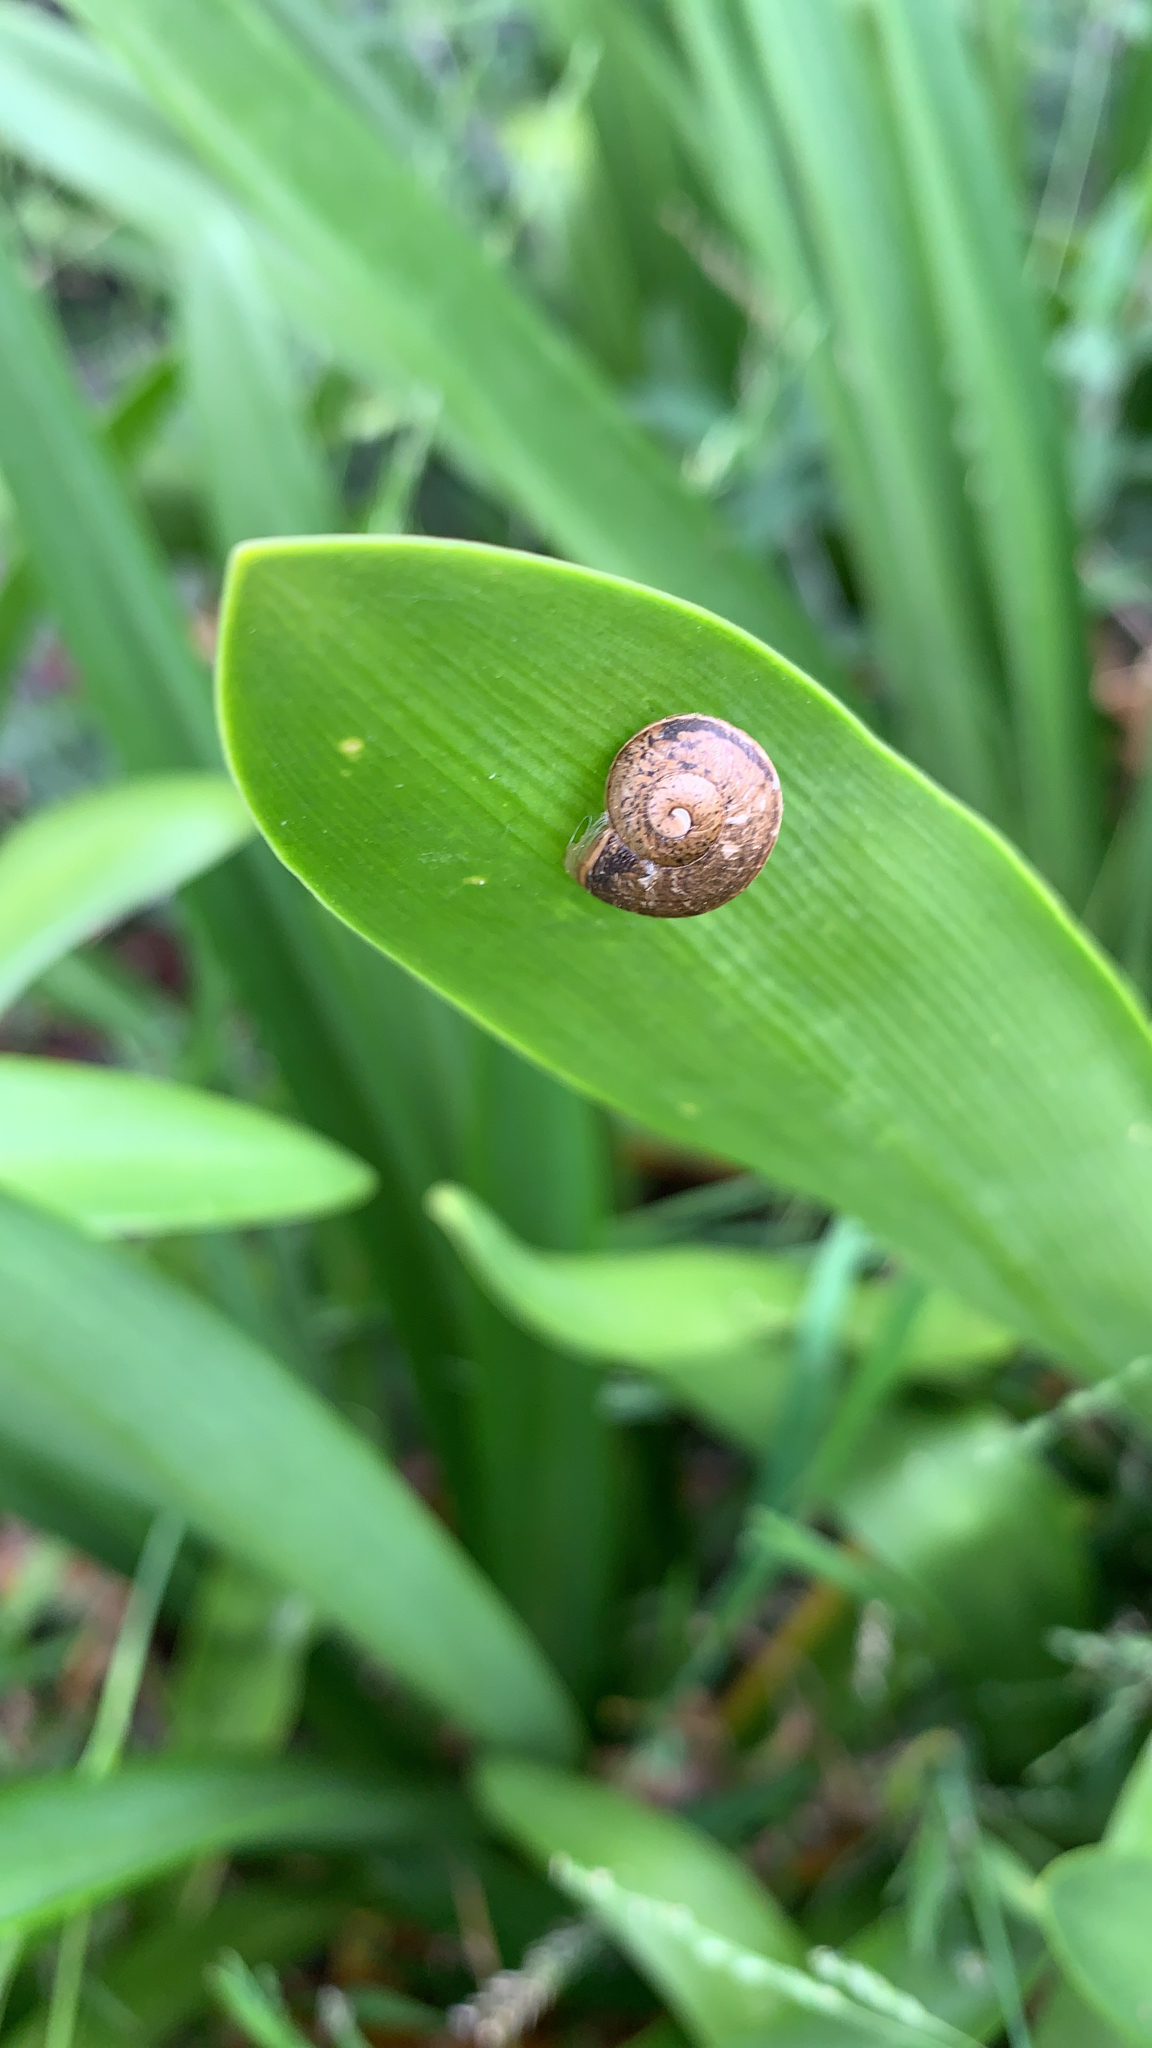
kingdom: Animalia
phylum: Mollusca
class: Gastropoda
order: Stylommatophora
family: Helicidae
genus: Cornu
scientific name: Cornu aspersum
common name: Brown garden snail
